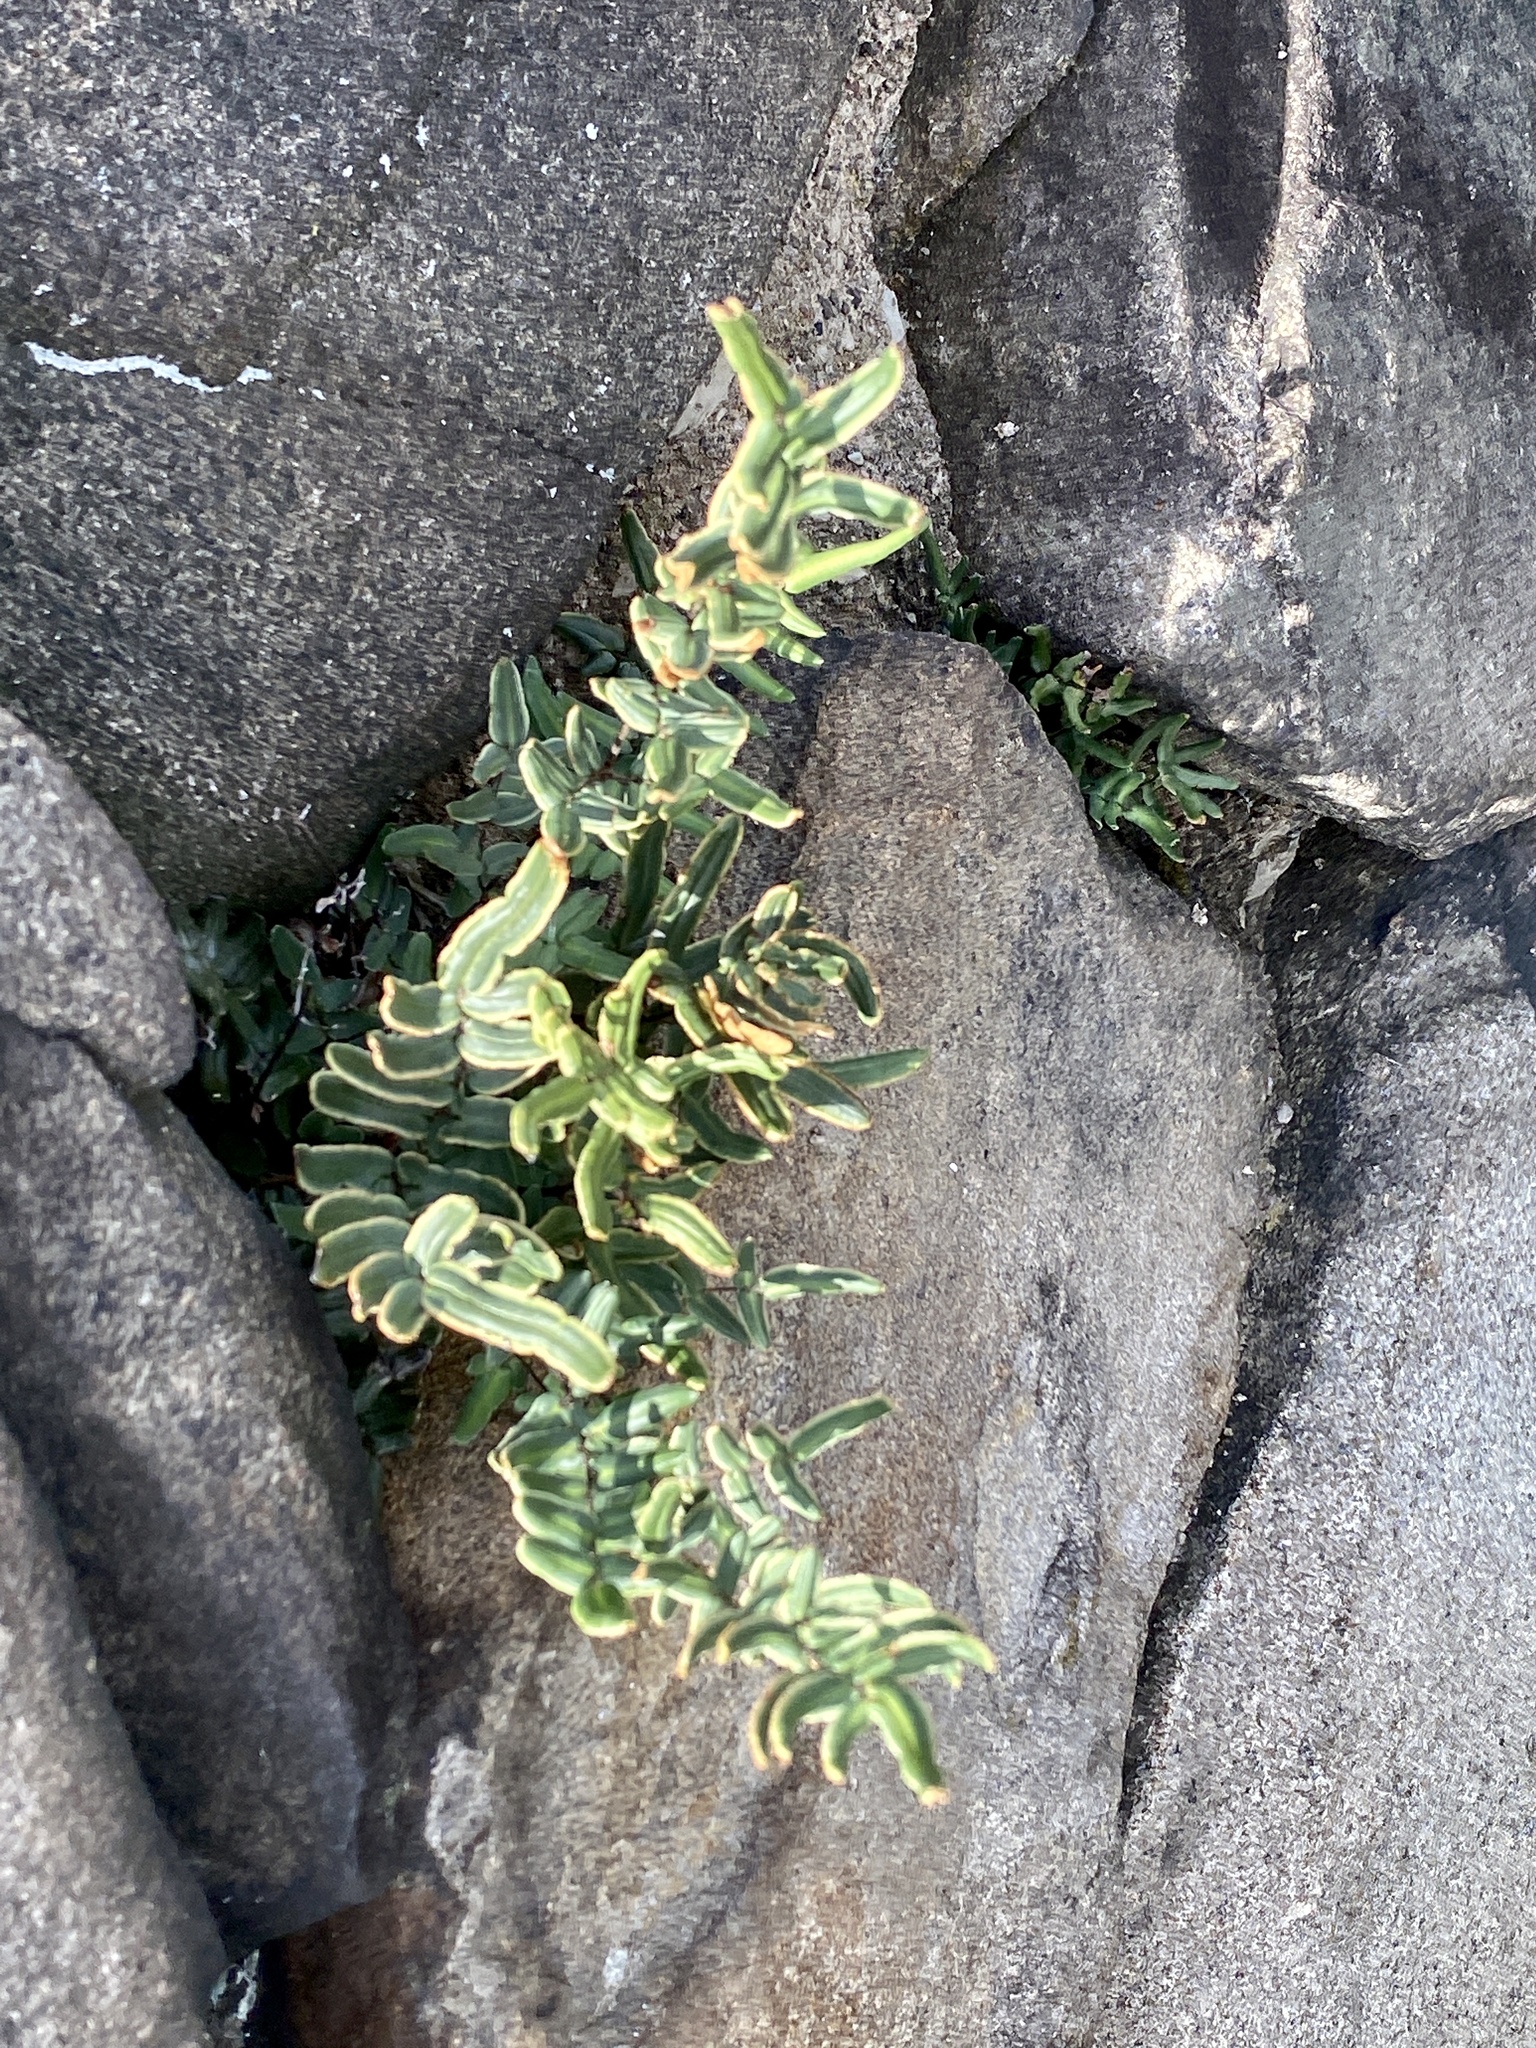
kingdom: Plantae
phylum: Tracheophyta
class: Polypodiopsida
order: Polypodiales
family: Pteridaceae
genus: Pellaea
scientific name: Pellaea atropurpurea
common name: Hairy cliffbrake
